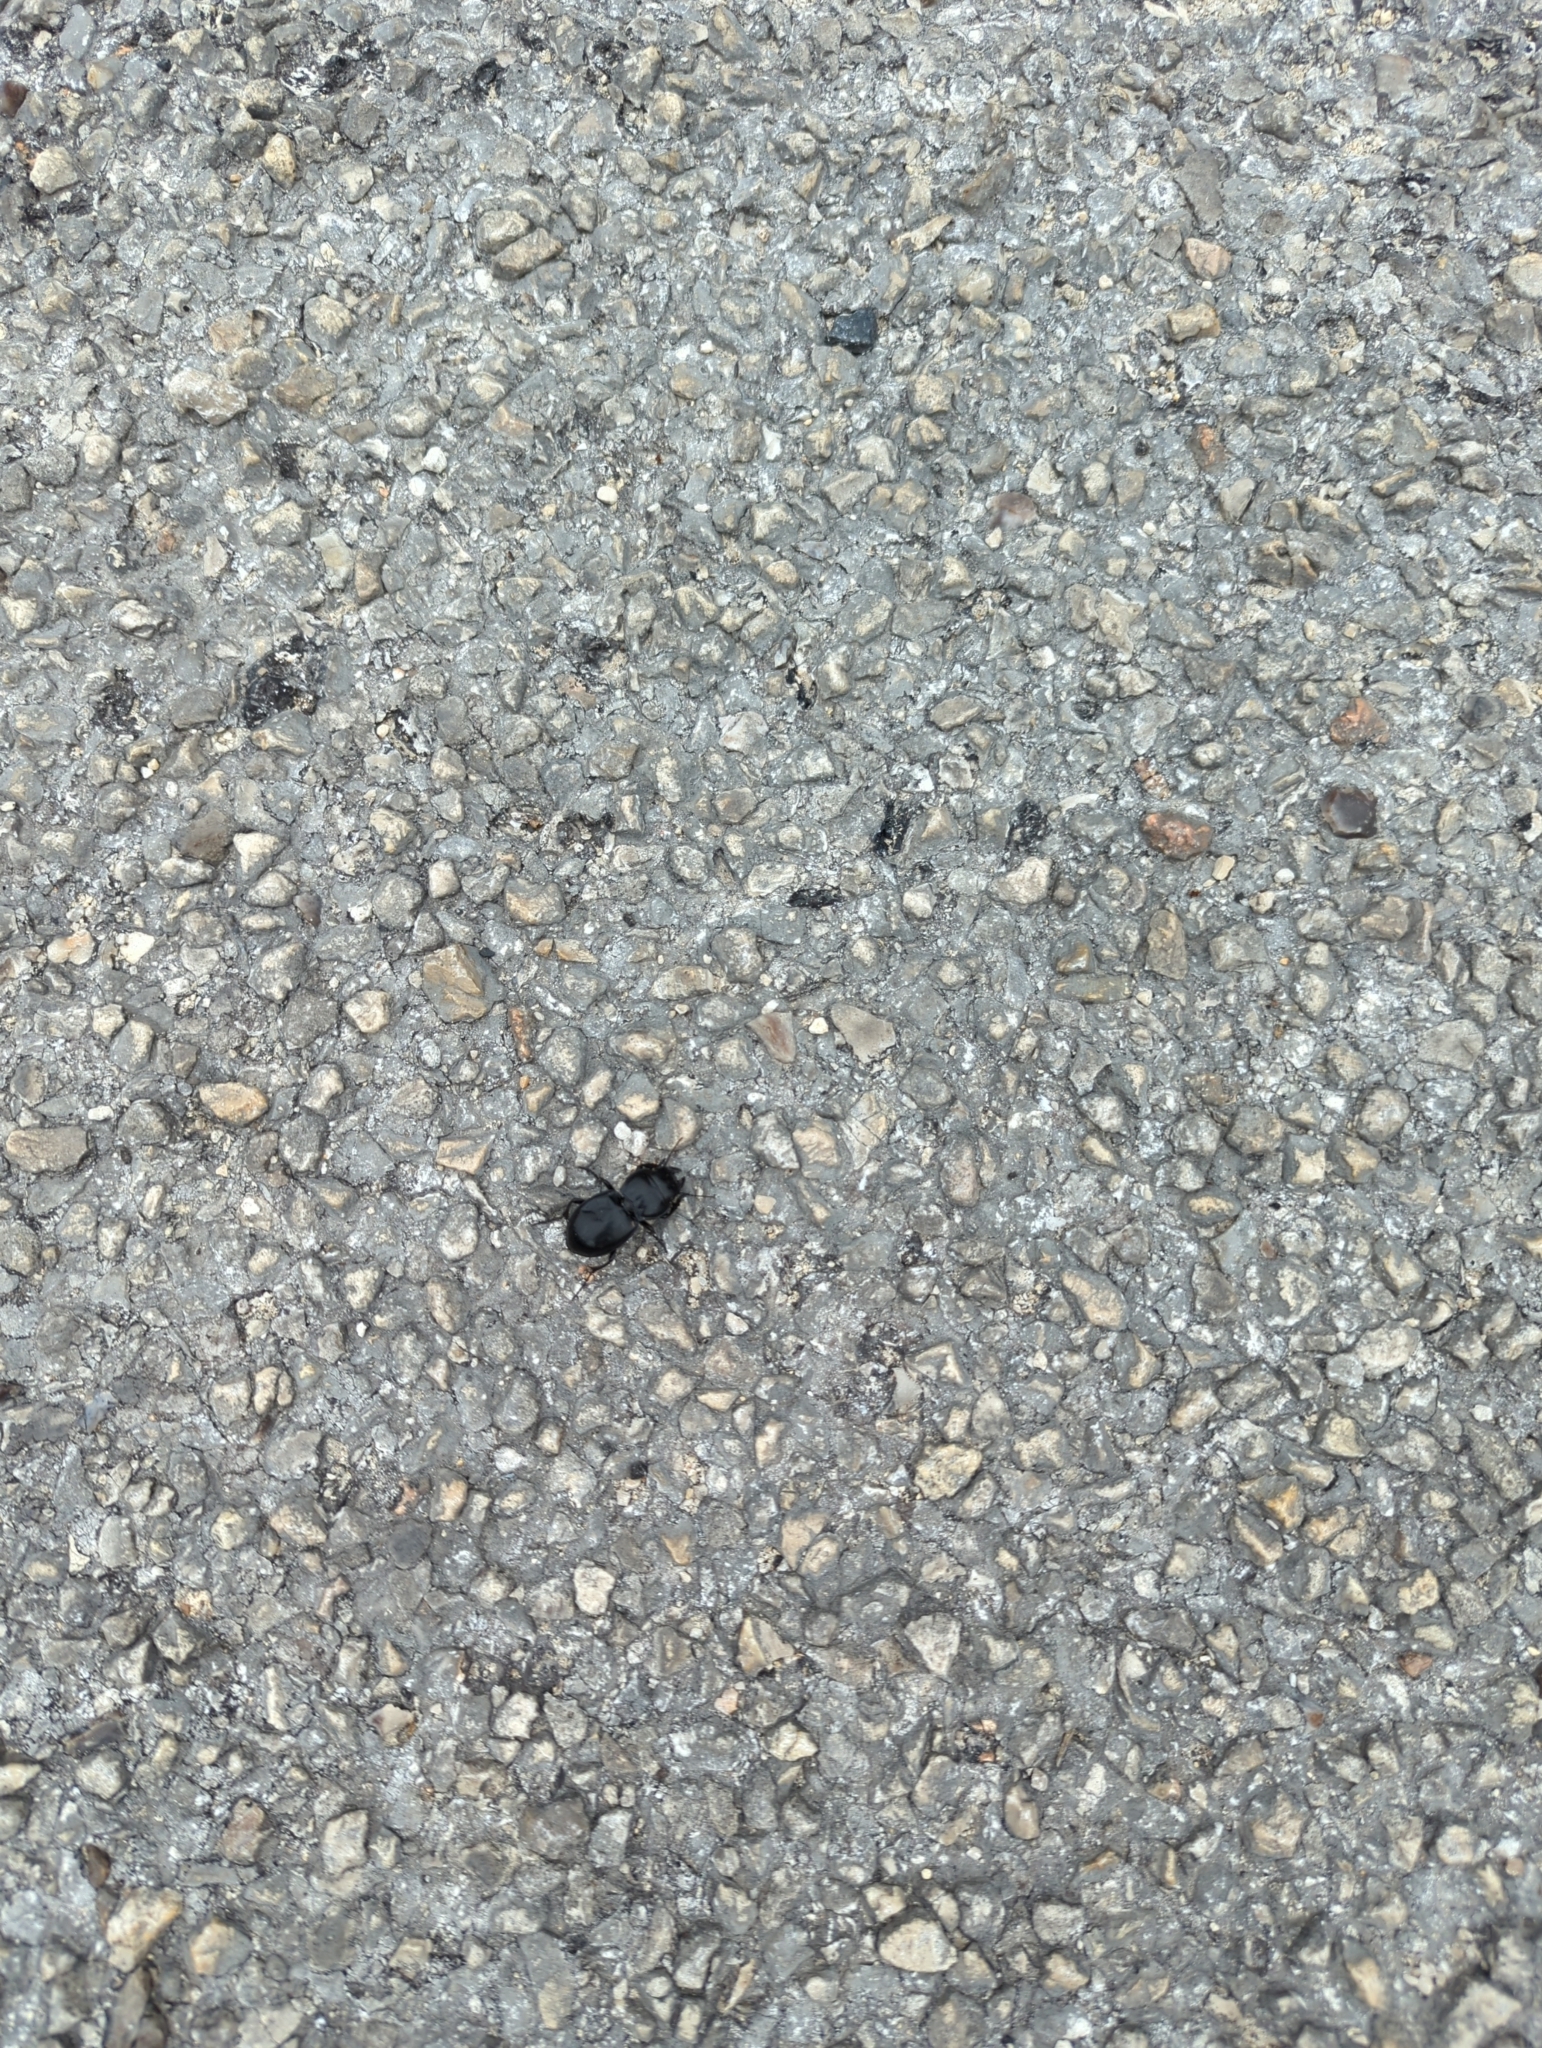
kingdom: Animalia
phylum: Arthropoda
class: Insecta
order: Coleoptera
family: Carabidae
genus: Pasimachus
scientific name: Pasimachus californicus
